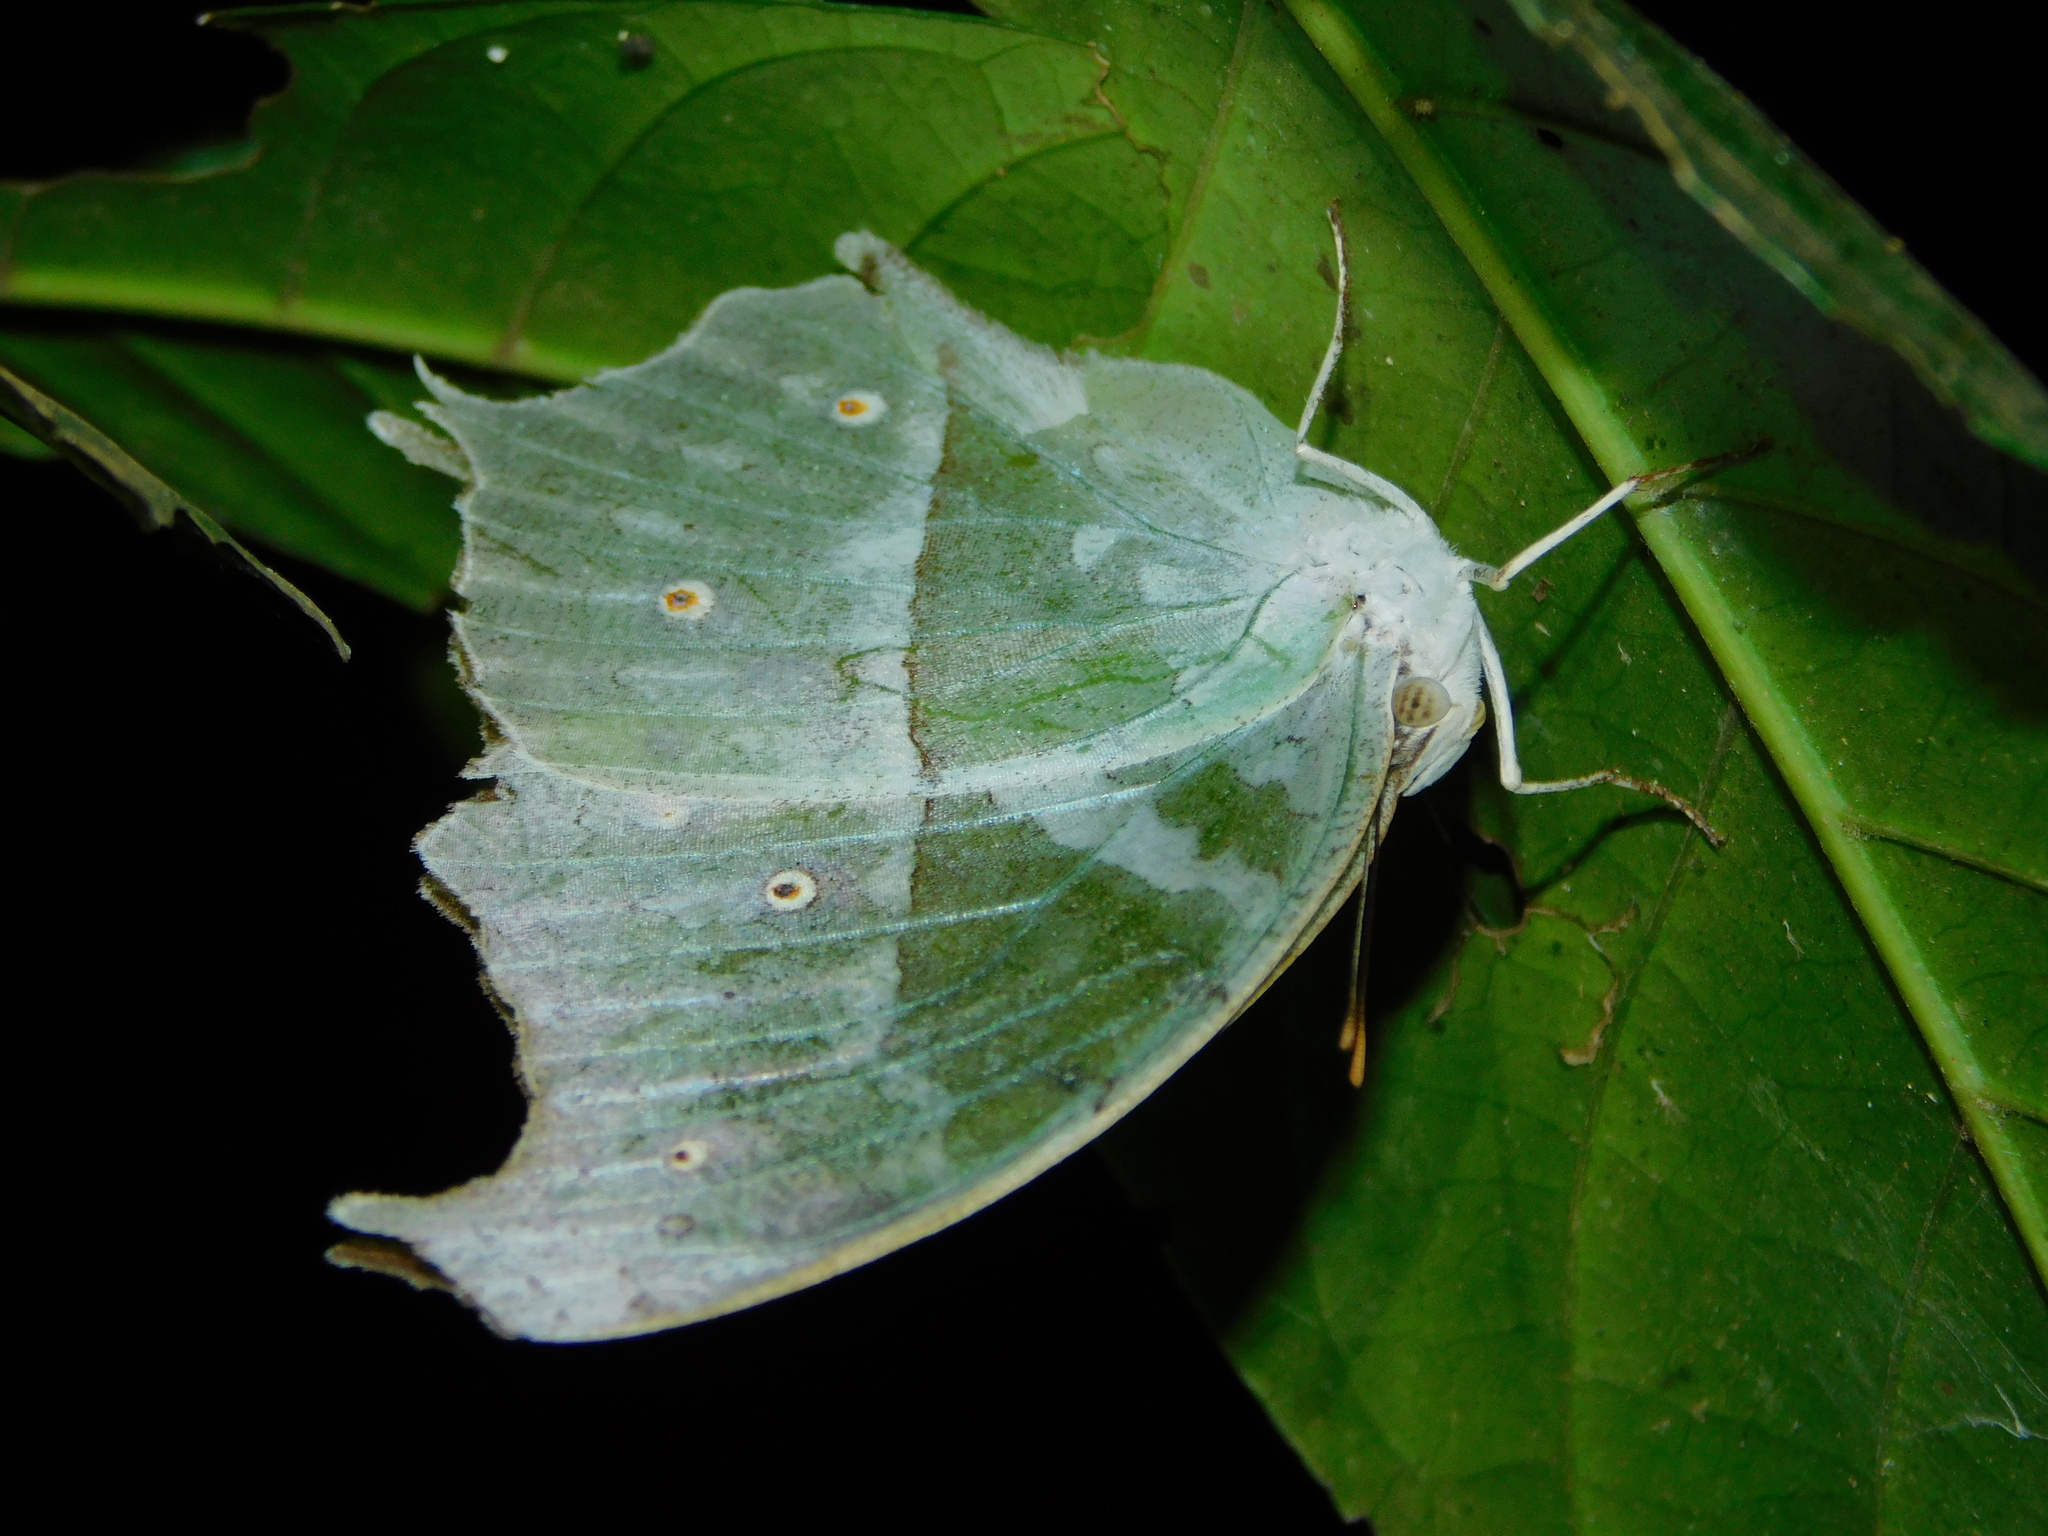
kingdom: Animalia
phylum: Arthropoda
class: Insecta
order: Lepidoptera
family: Nymphalidae
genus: Salamis
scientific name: Salamis Protogoniomorpha parhassus
